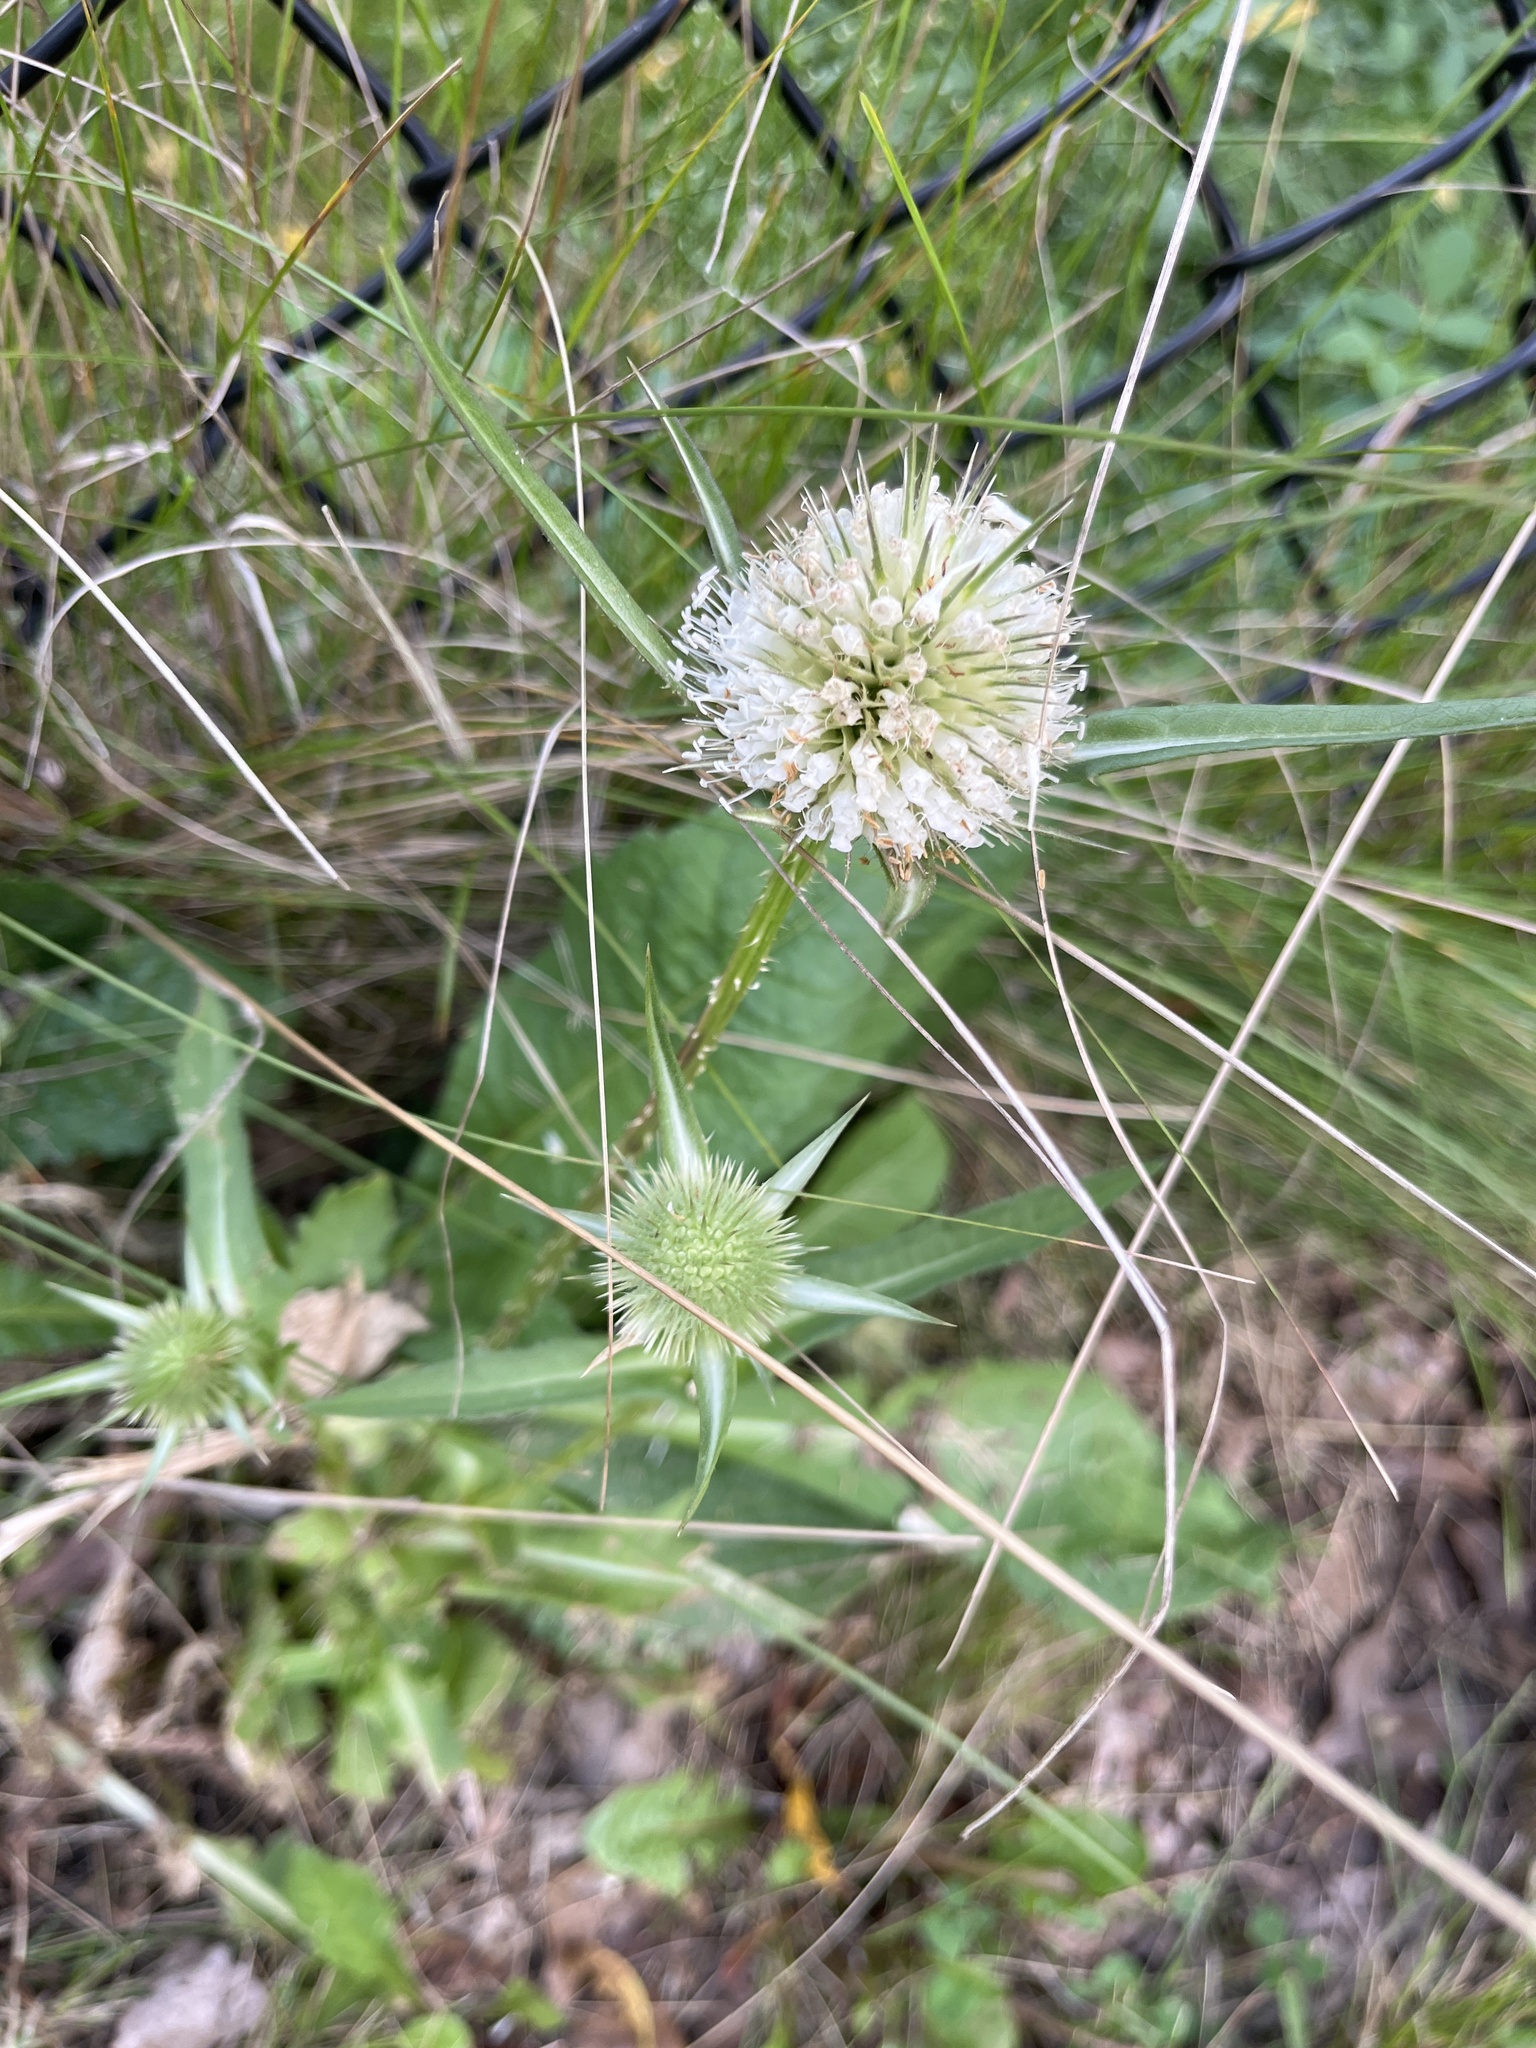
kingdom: Plantae
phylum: Tracheophyta
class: Magnoliopsida
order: Dipsacales
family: Caprifoliaceae
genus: Dipsacus
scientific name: Dipsacus laciniatus
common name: Cut-leaved teasel
